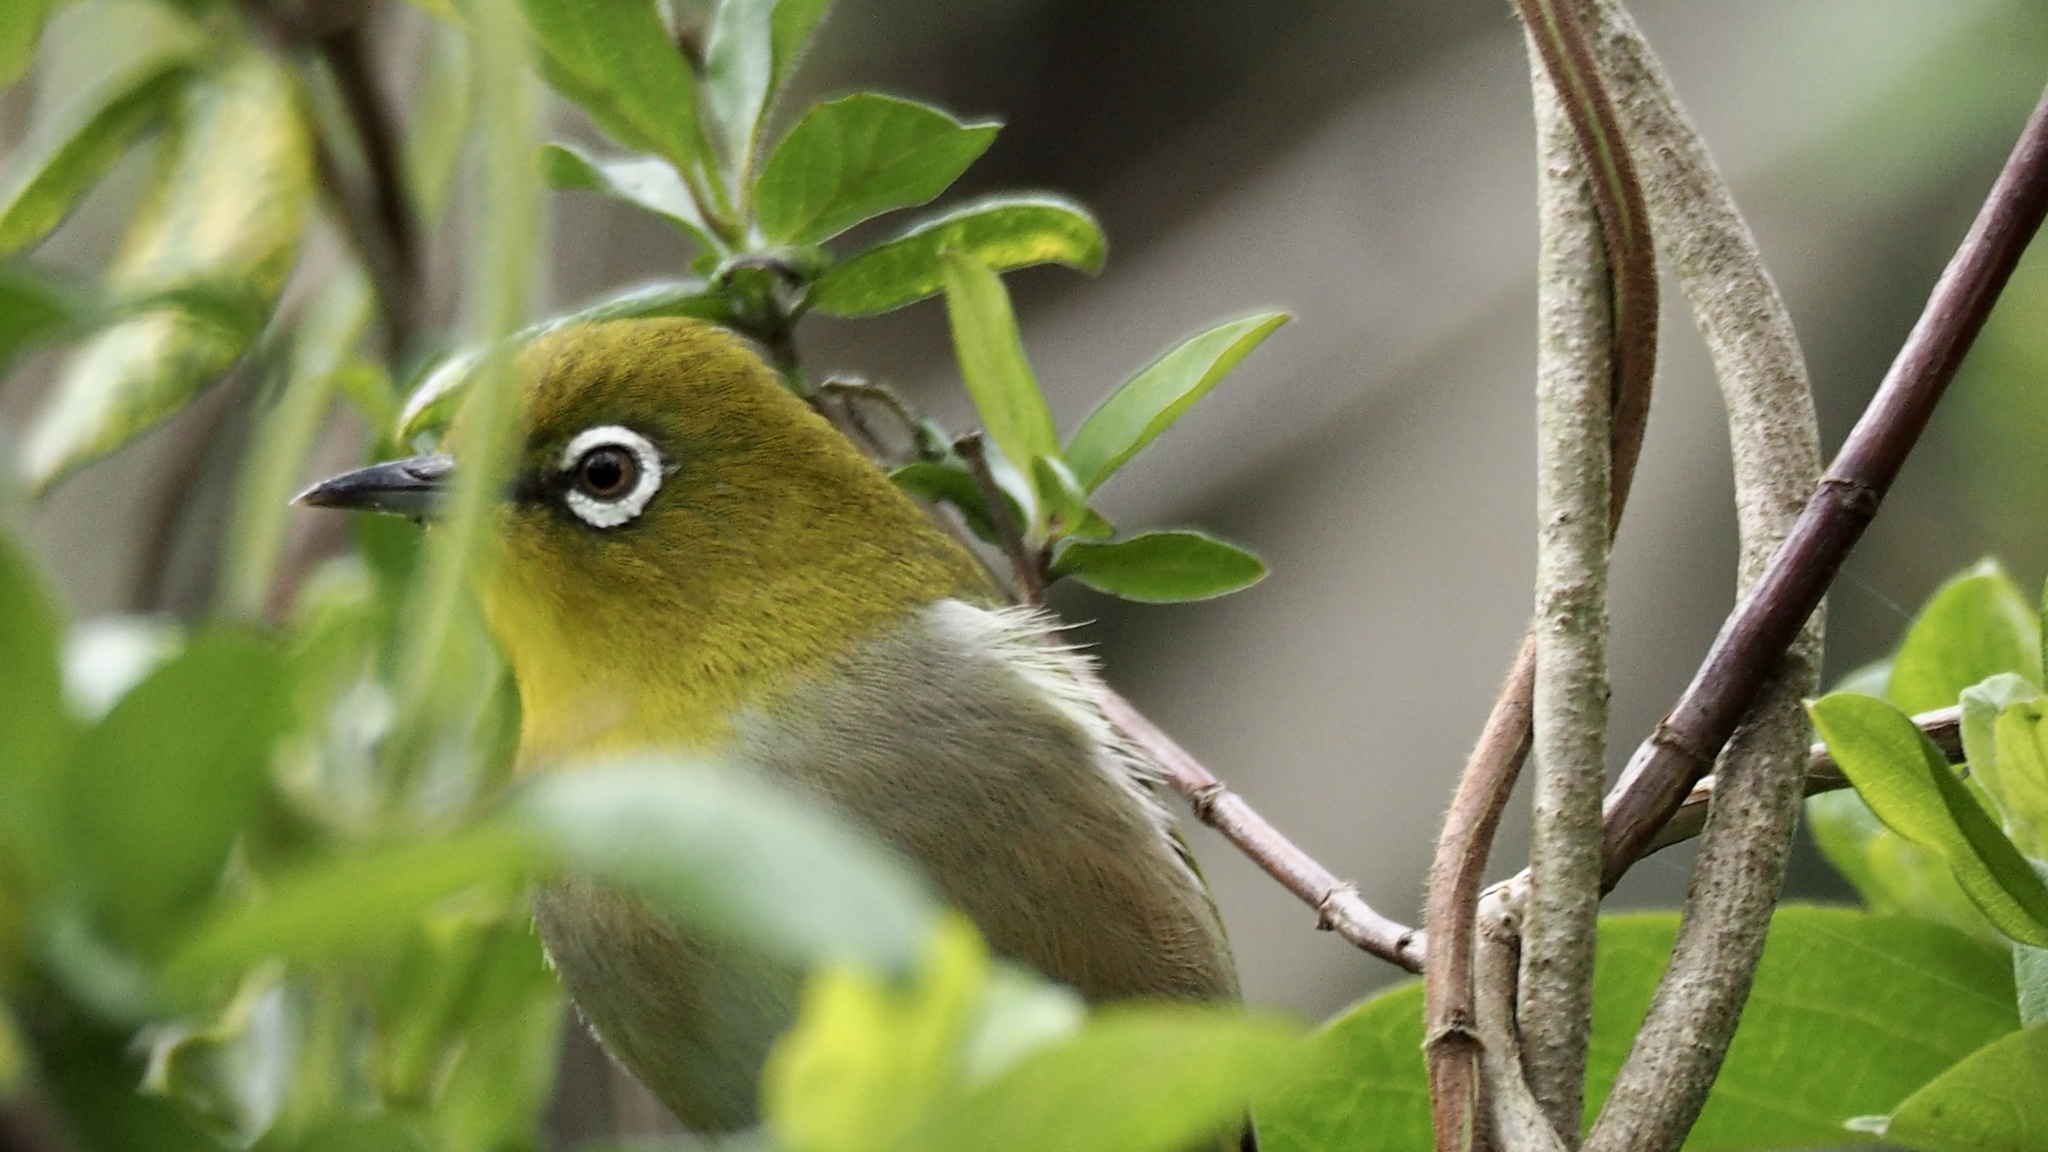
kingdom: Animalia
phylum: Chordata
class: Aves
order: Passeriformes
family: Zosteropidae
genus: Zosterops
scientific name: Zosterops japonicus
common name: Japanese white-eye
